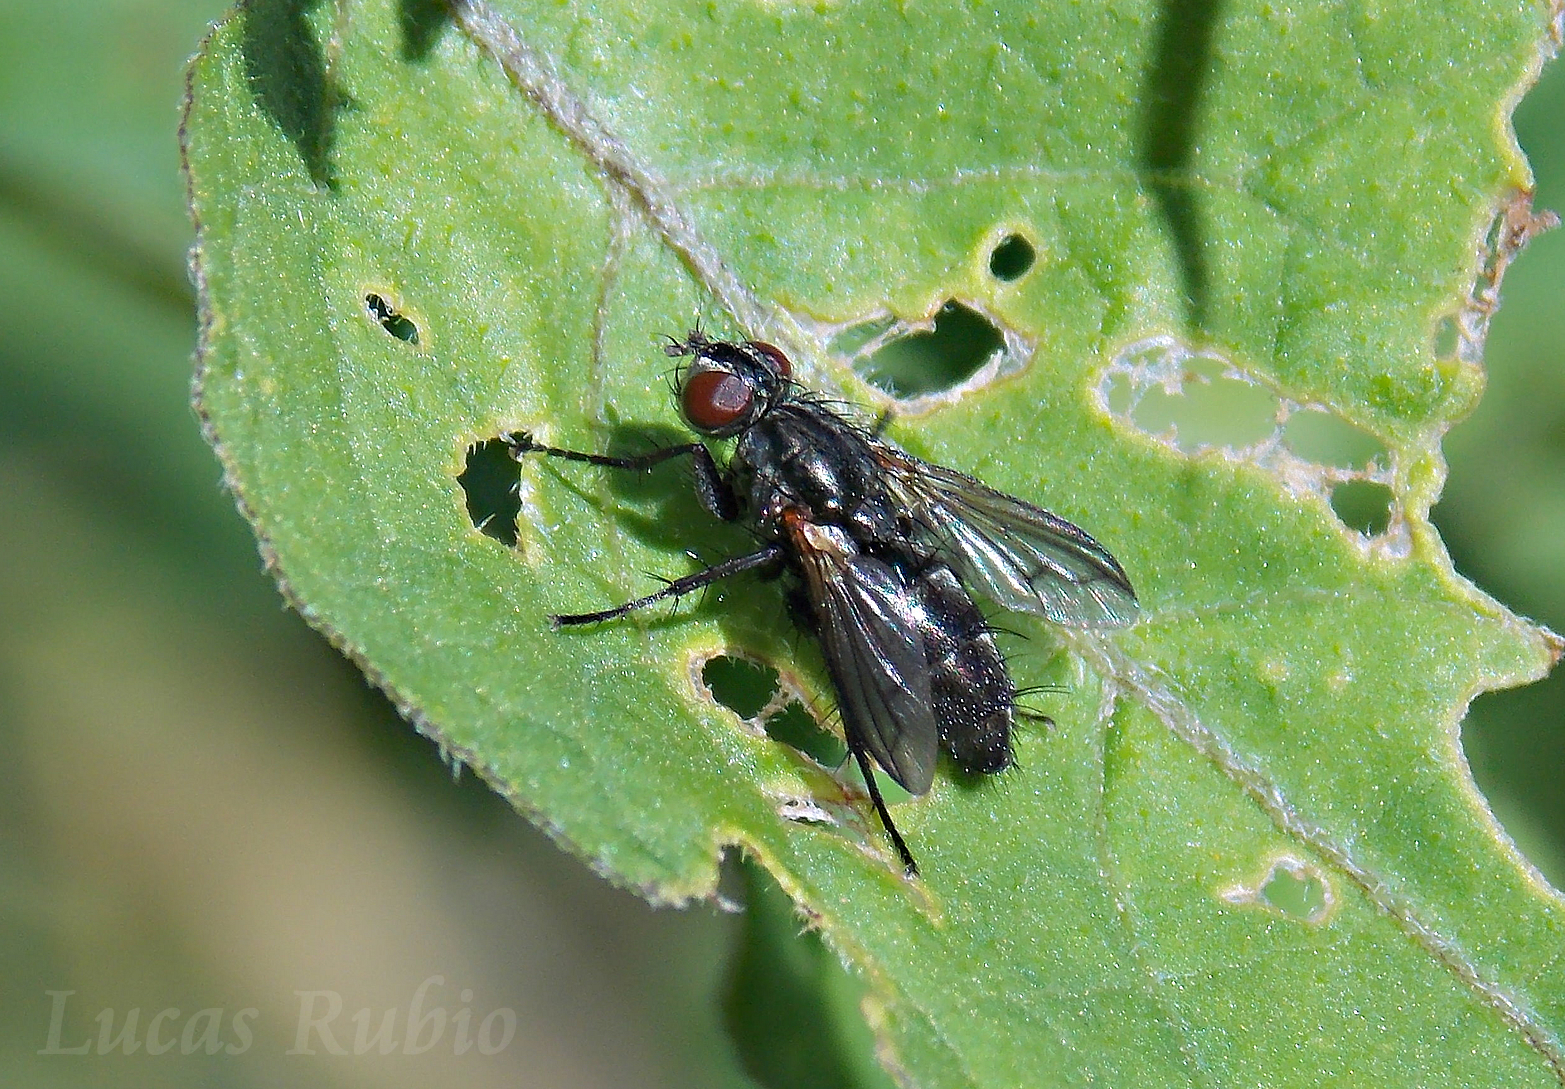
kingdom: Animalia
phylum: Arthropoda
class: Insecta
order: Diptera
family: Calliphoridae
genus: Stevenia
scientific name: Stevenia deceptoria
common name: Grizzled woodlouse-fly
